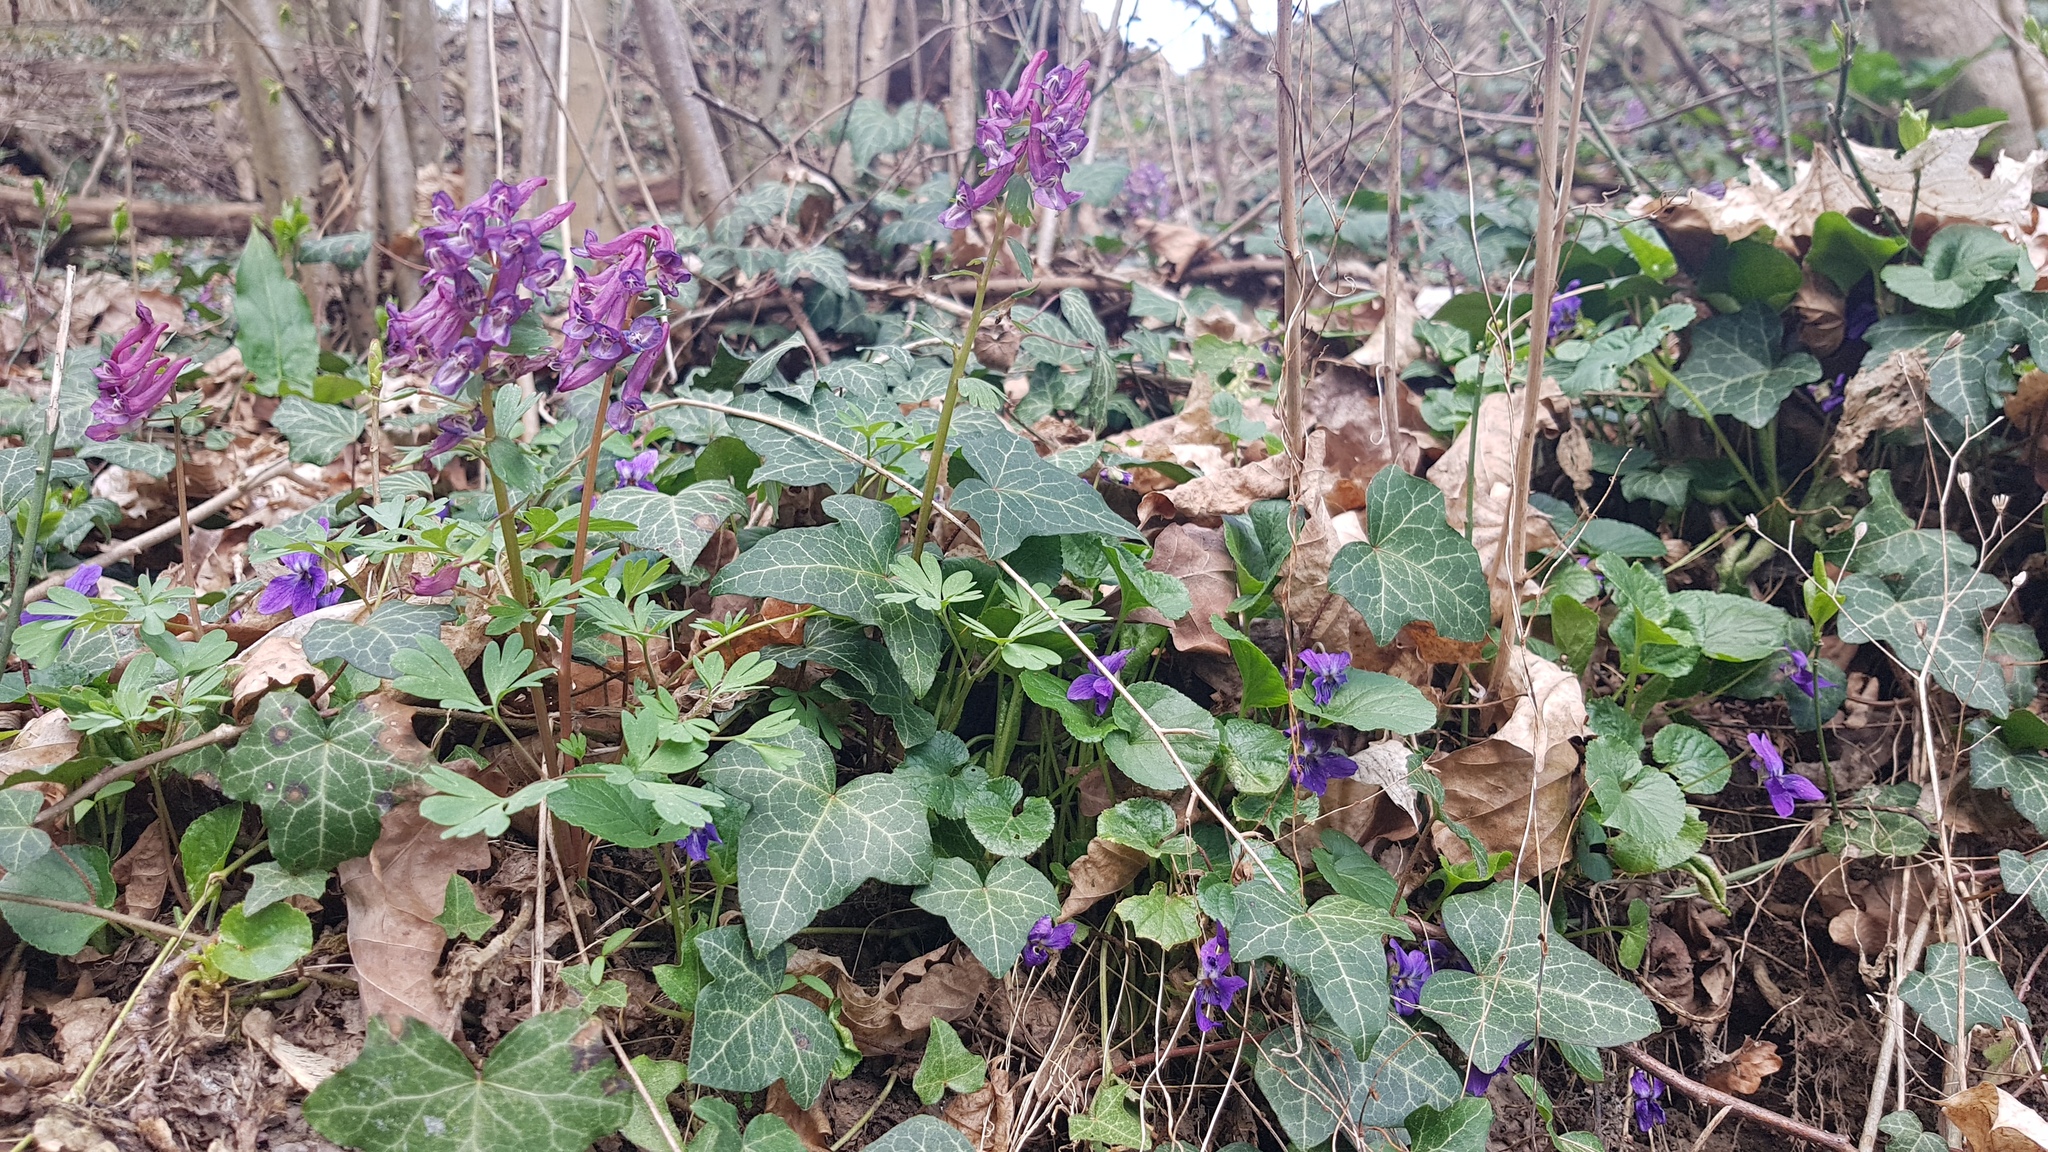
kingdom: Plantae
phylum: Tracheophyta
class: Magnoliopsida
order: Ranunculales
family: Papaveraceae
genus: Corydalis
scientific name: Corydalis solida
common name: Bird-in-a-bush
